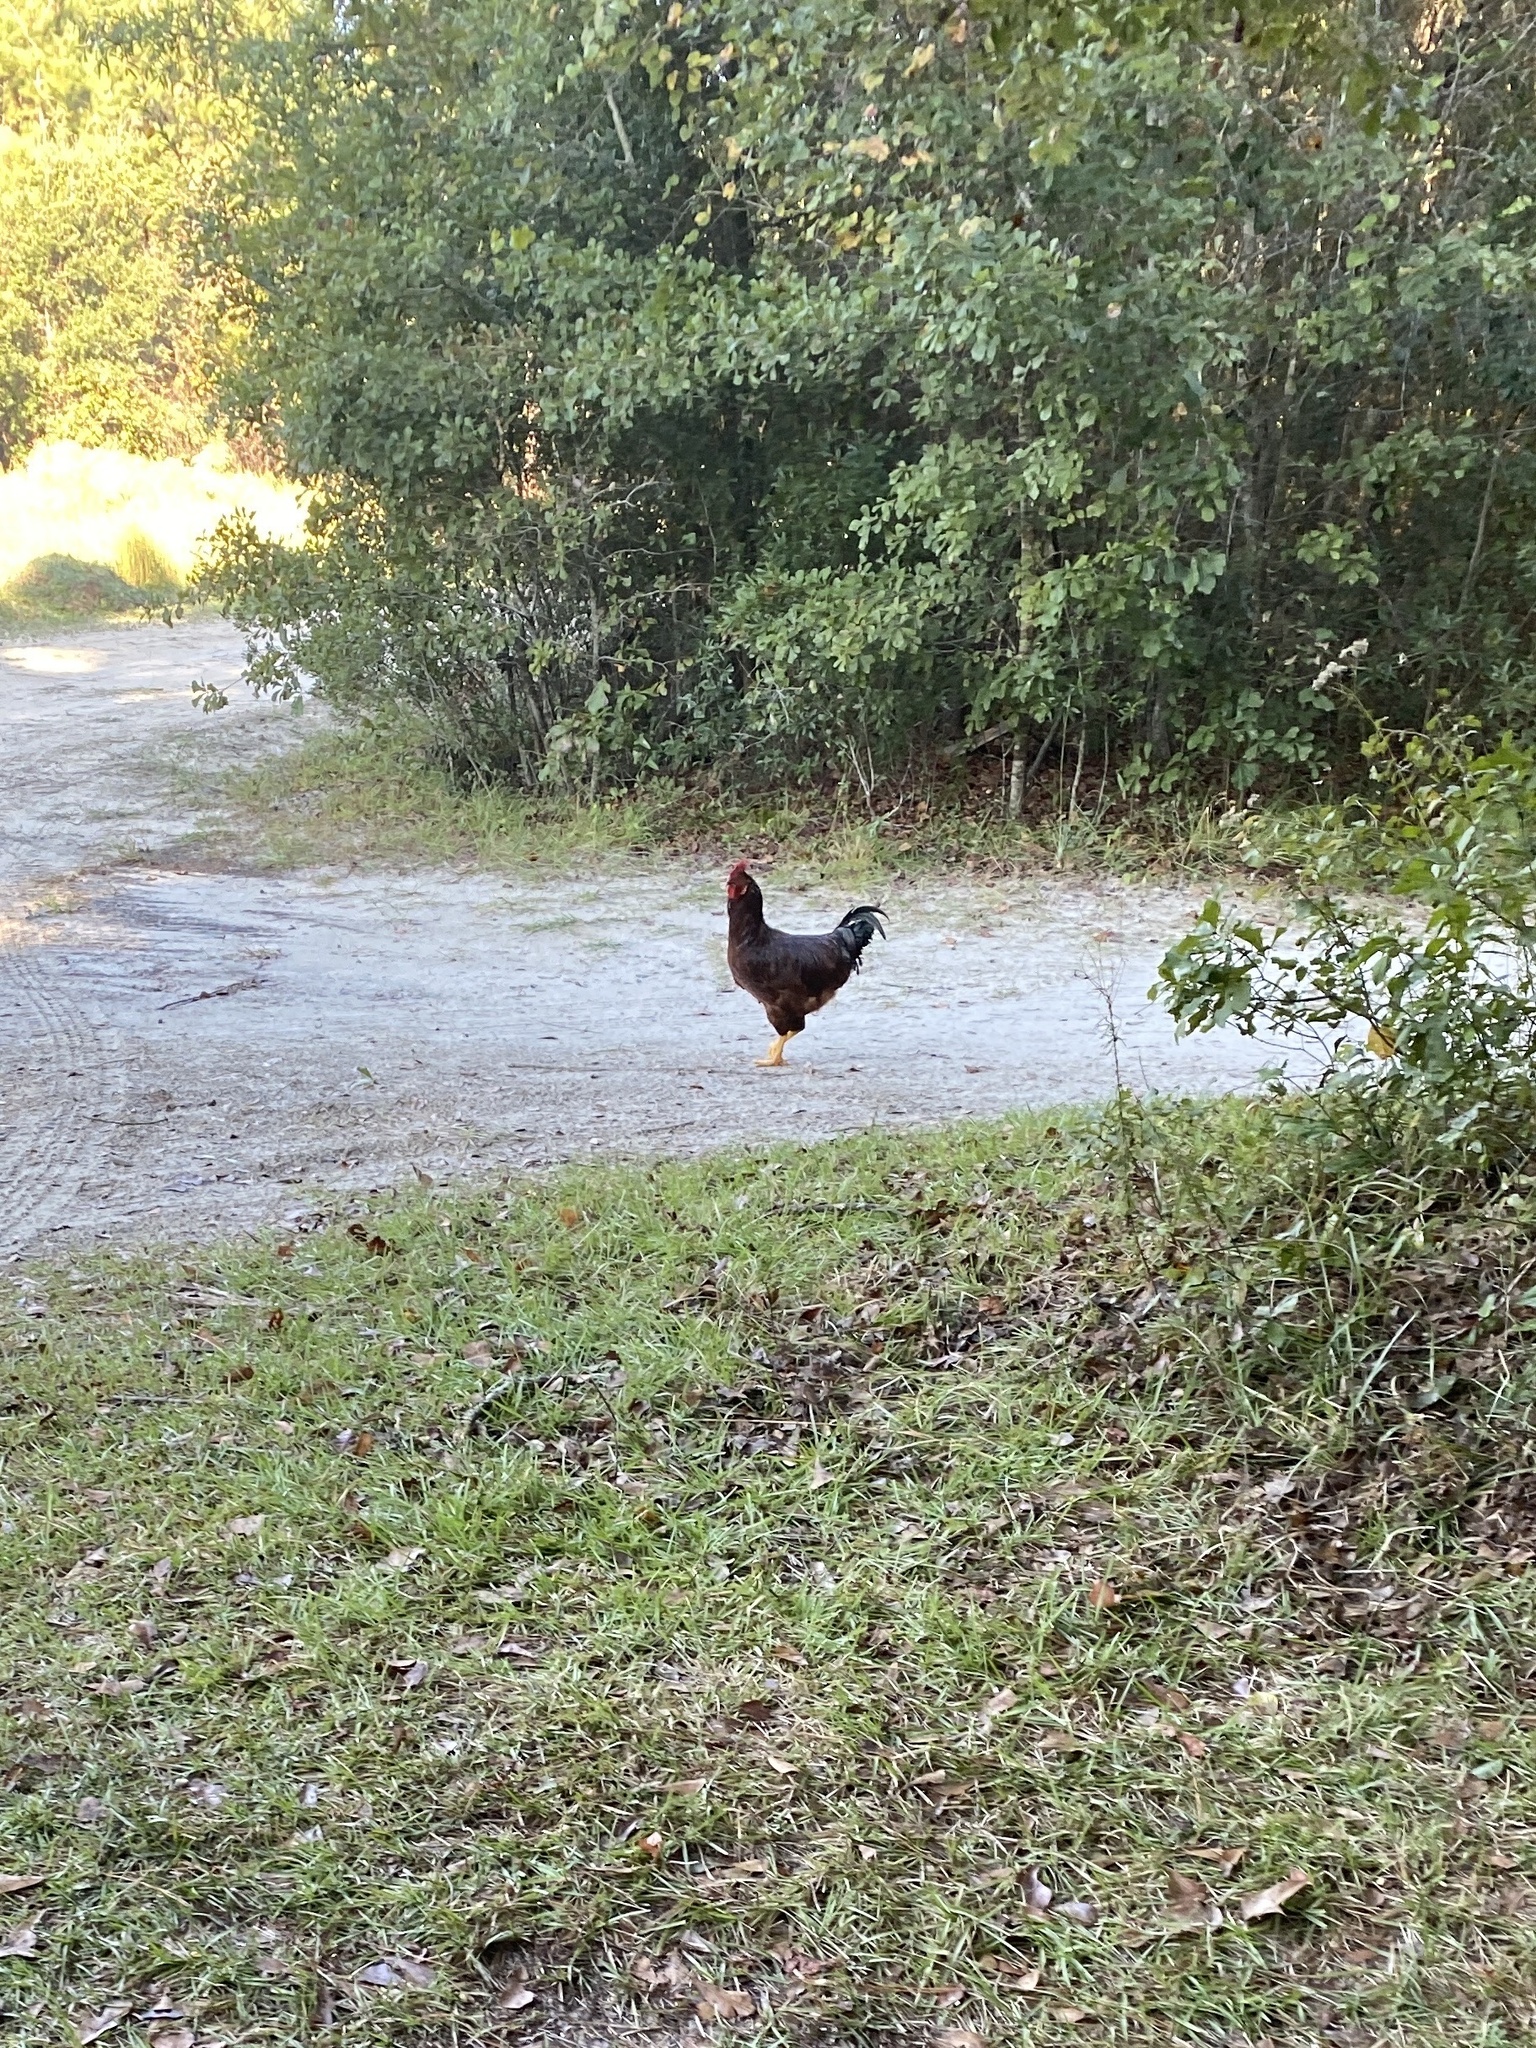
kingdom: Animalia
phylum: Chordata
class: Aves
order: Galliformes
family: Phasianidae
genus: Gallus
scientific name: Gallus gallus
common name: Red junglefowl
